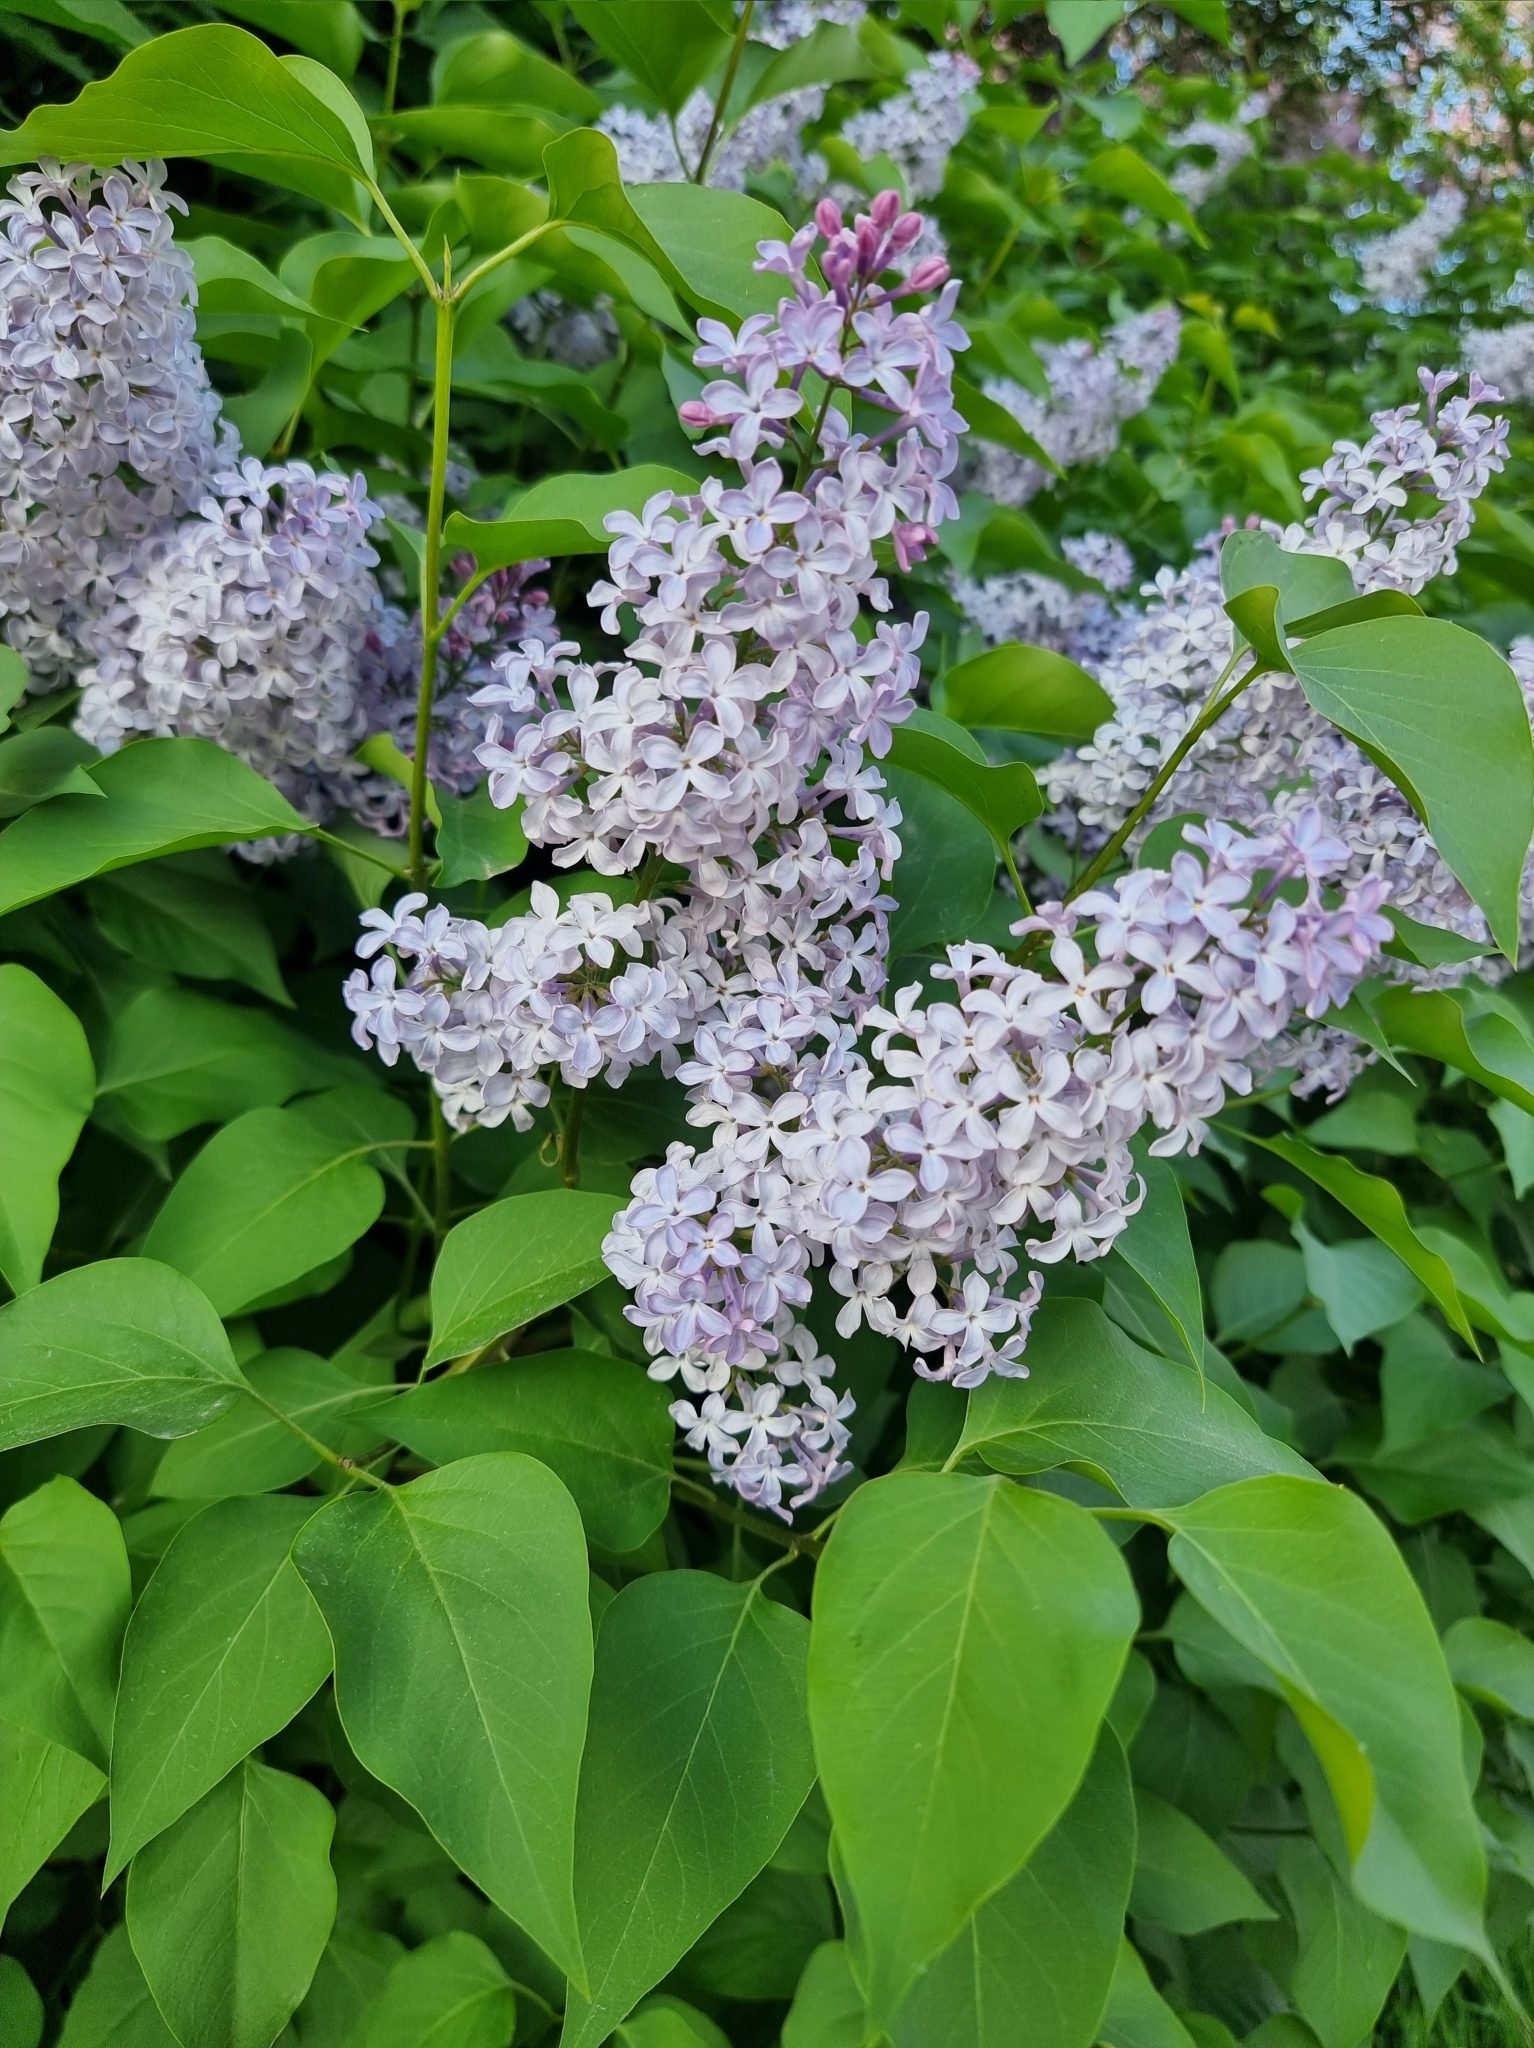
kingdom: Plantae
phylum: Tracheophyta
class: Magnoliopsida
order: Lamiales
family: Oleaceae
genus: Syringa
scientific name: Syringa vulgaris
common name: Common lilac
